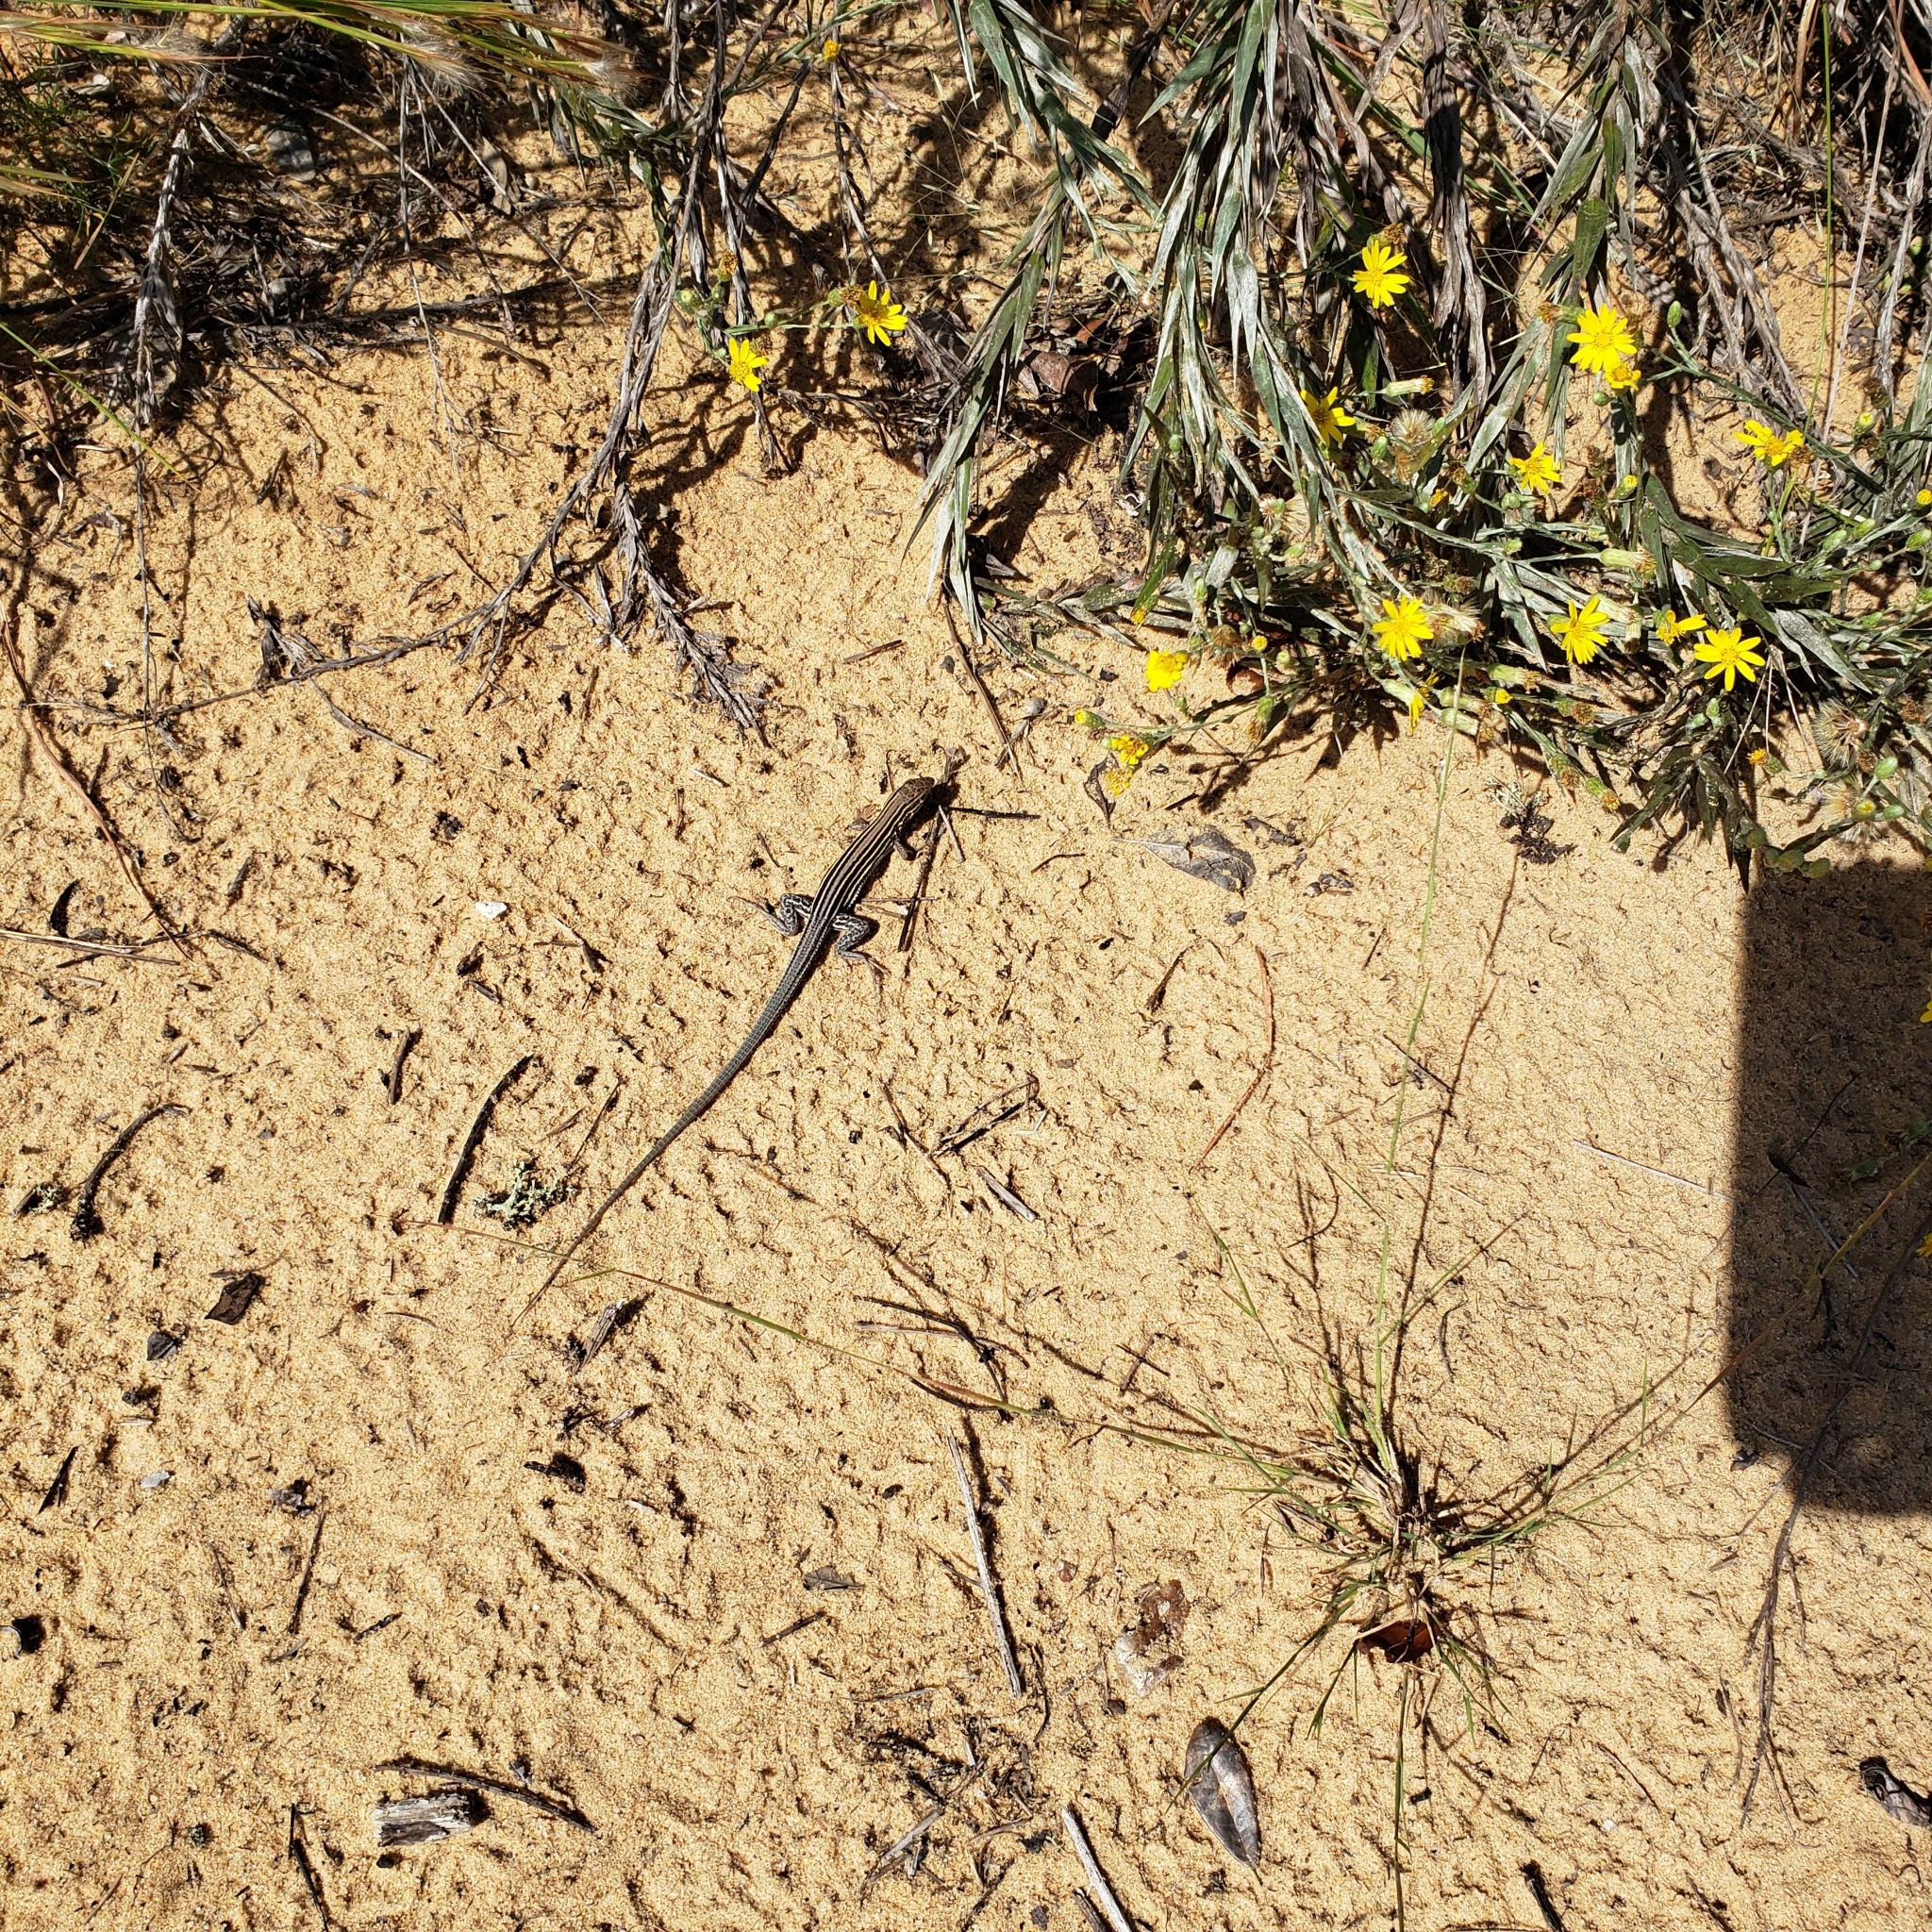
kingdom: Animalia
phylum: Chordata
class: Squamata
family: Teiidae
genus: Aspidoscelis
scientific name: Aspidoscelis sexlineatus
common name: Six-lined racerunner
